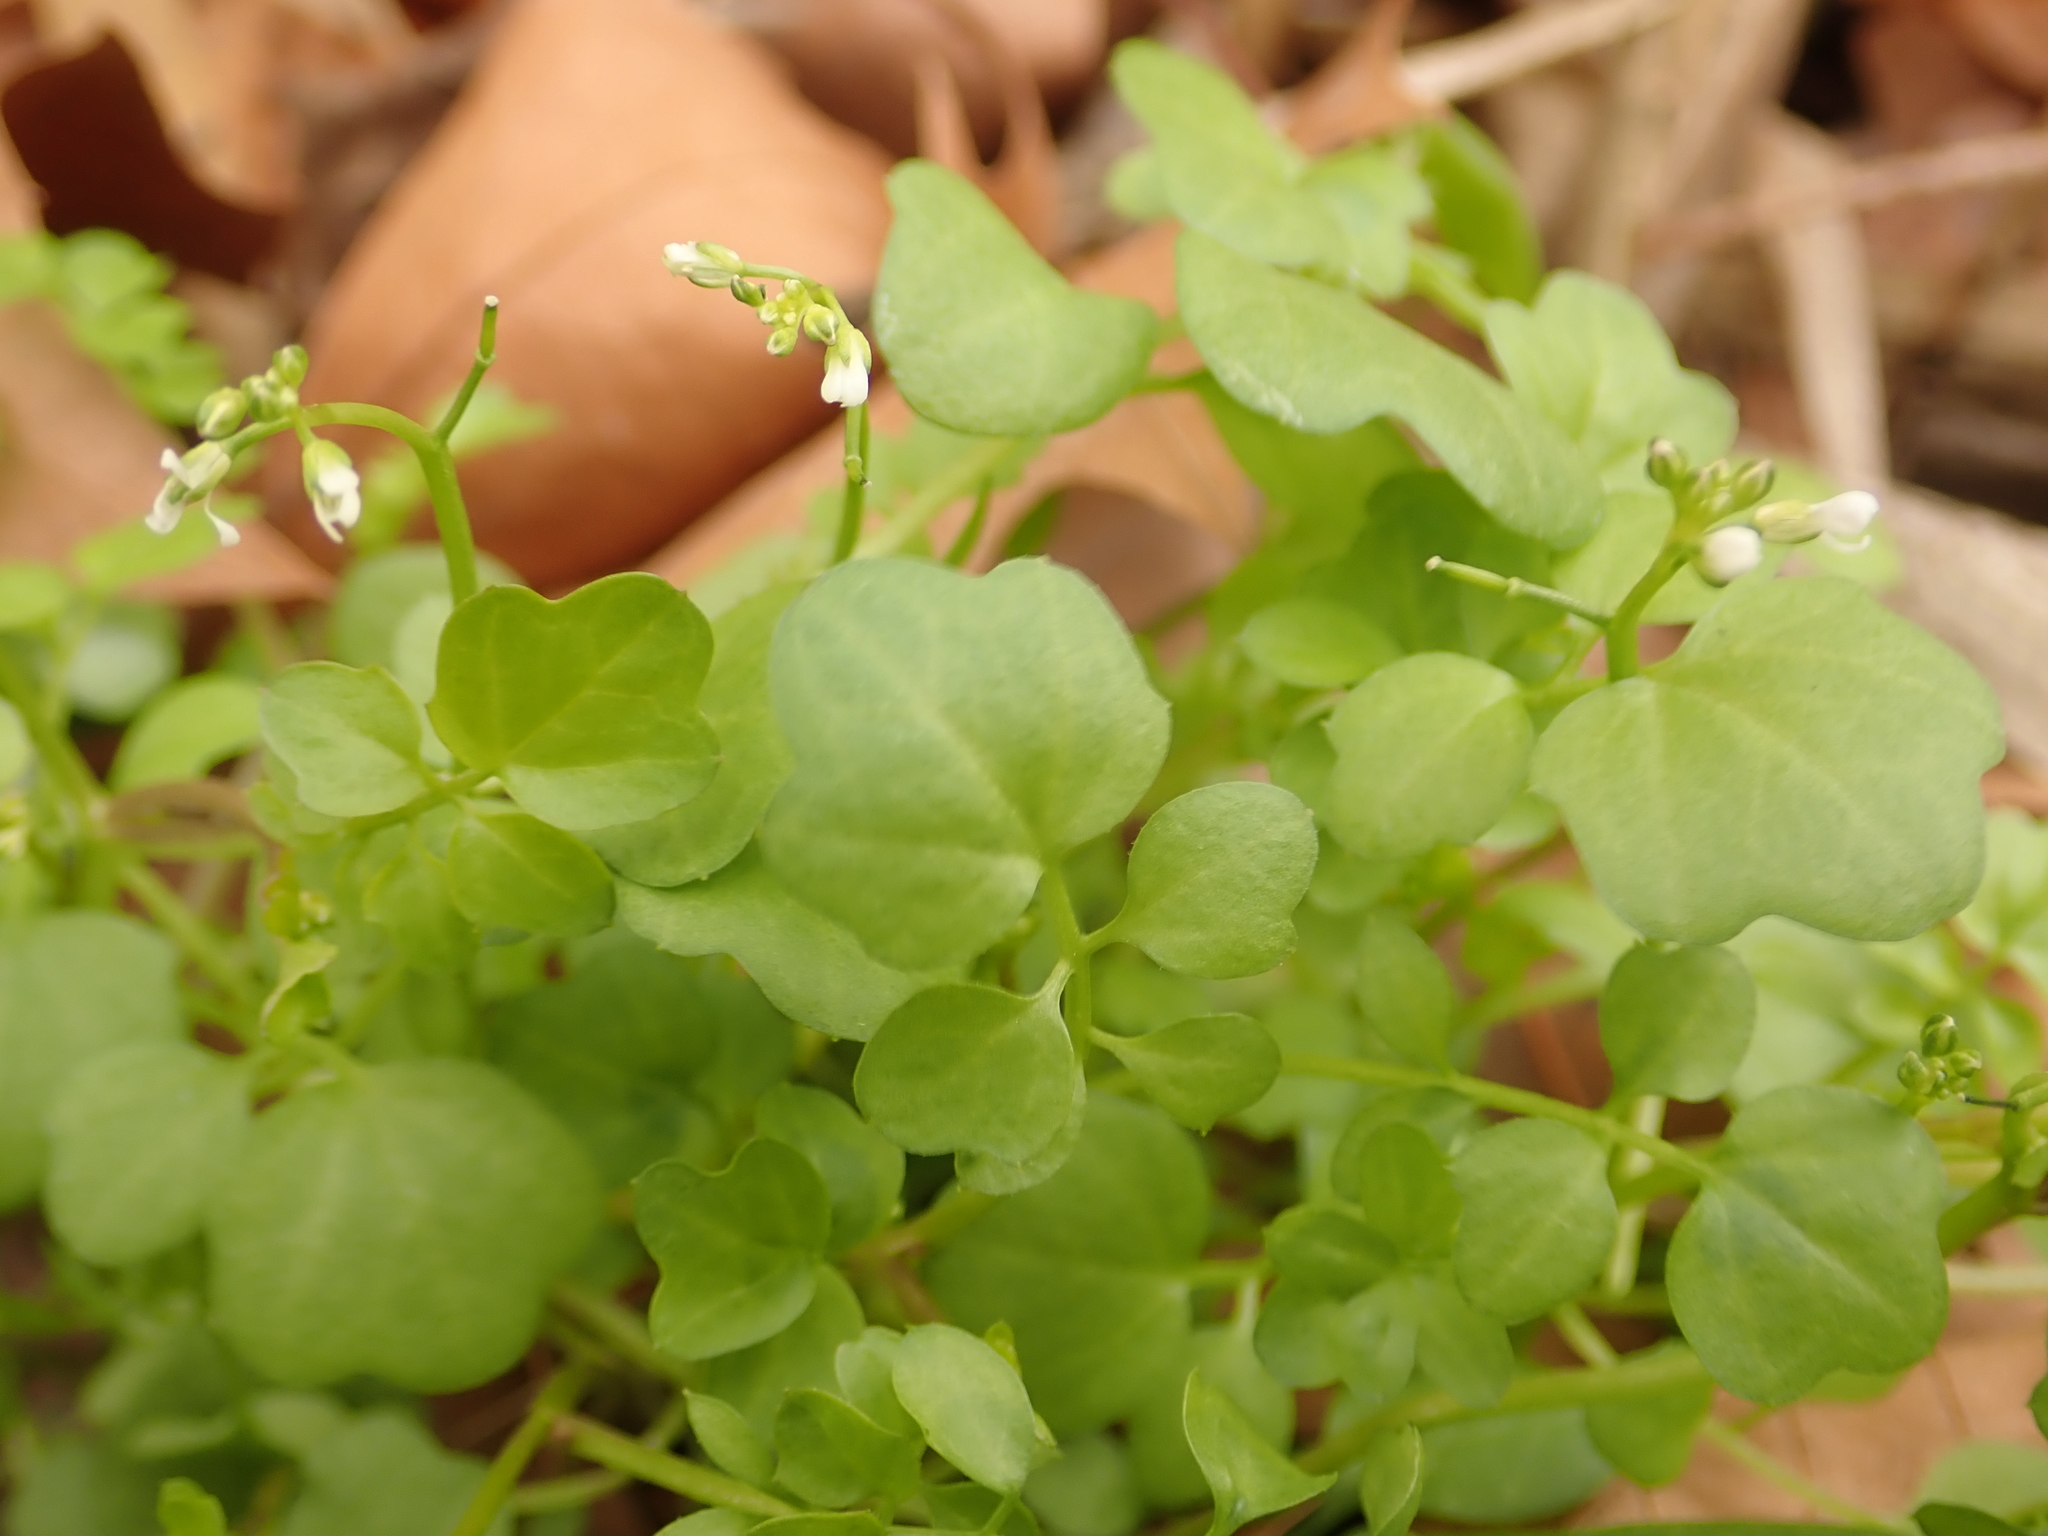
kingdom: Plantae
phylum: Tracheophyta
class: Magnoliopsida
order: Brassicales
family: Brassicaceae
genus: Cardamine
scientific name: Cardamine hirsuta
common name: Hairy bittercress
